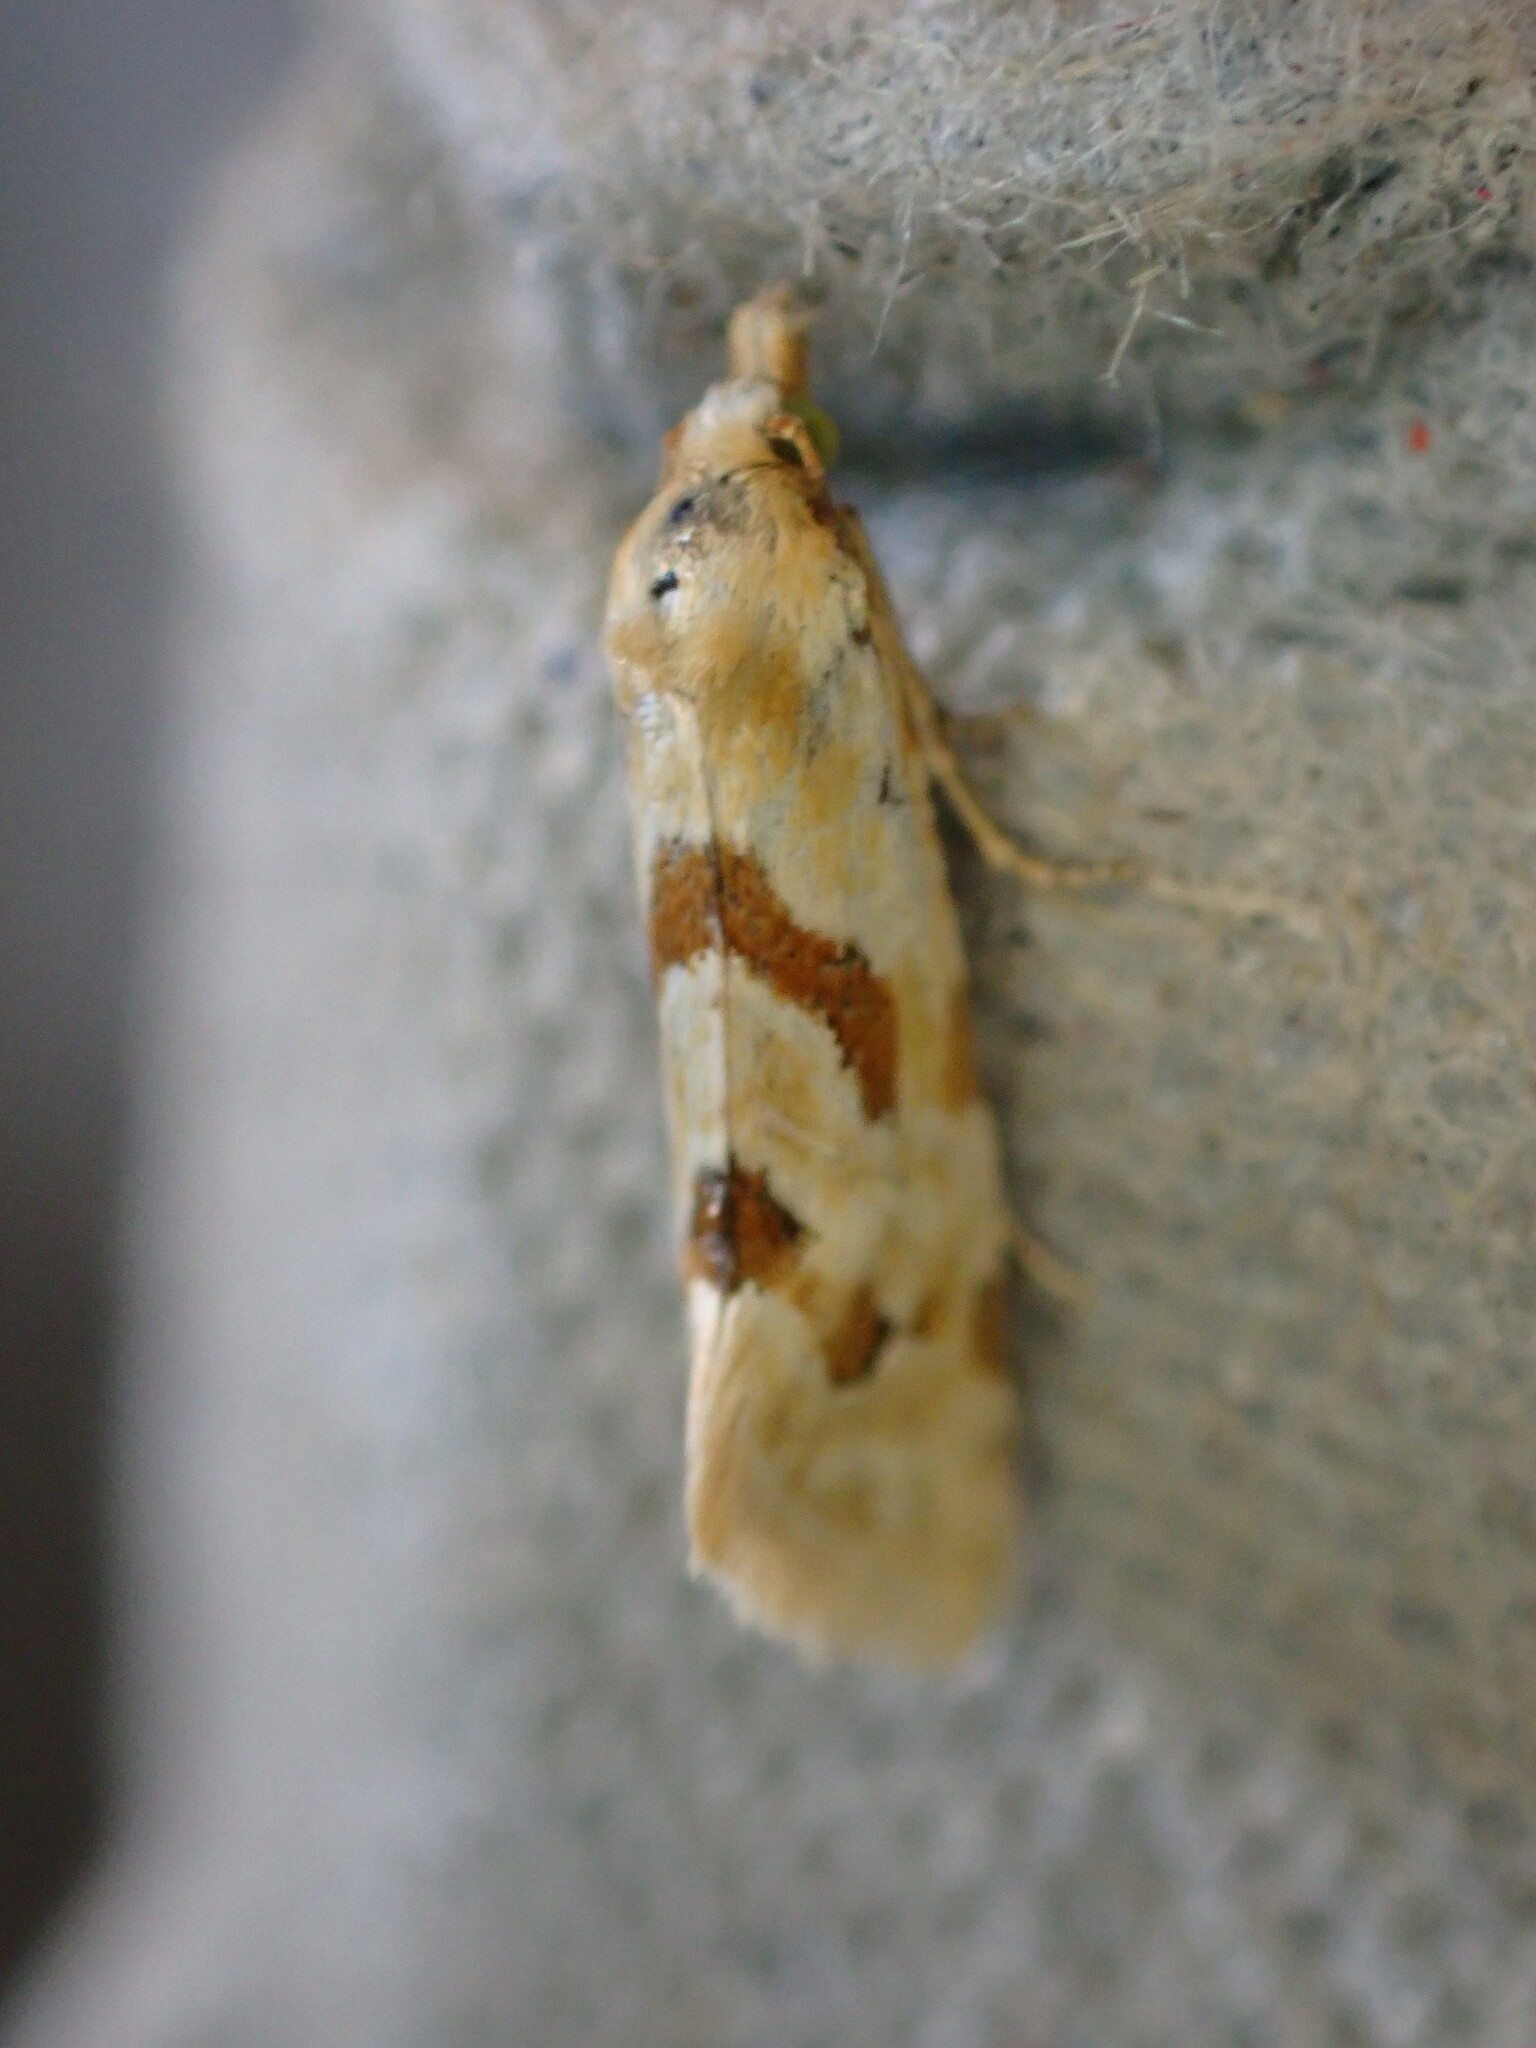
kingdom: Animalia
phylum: Arthropoda
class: Insecta
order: Lepidoptera
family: Tortricidae
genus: Aethes
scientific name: Aethes smeathmanniana
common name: Yarrow conch
